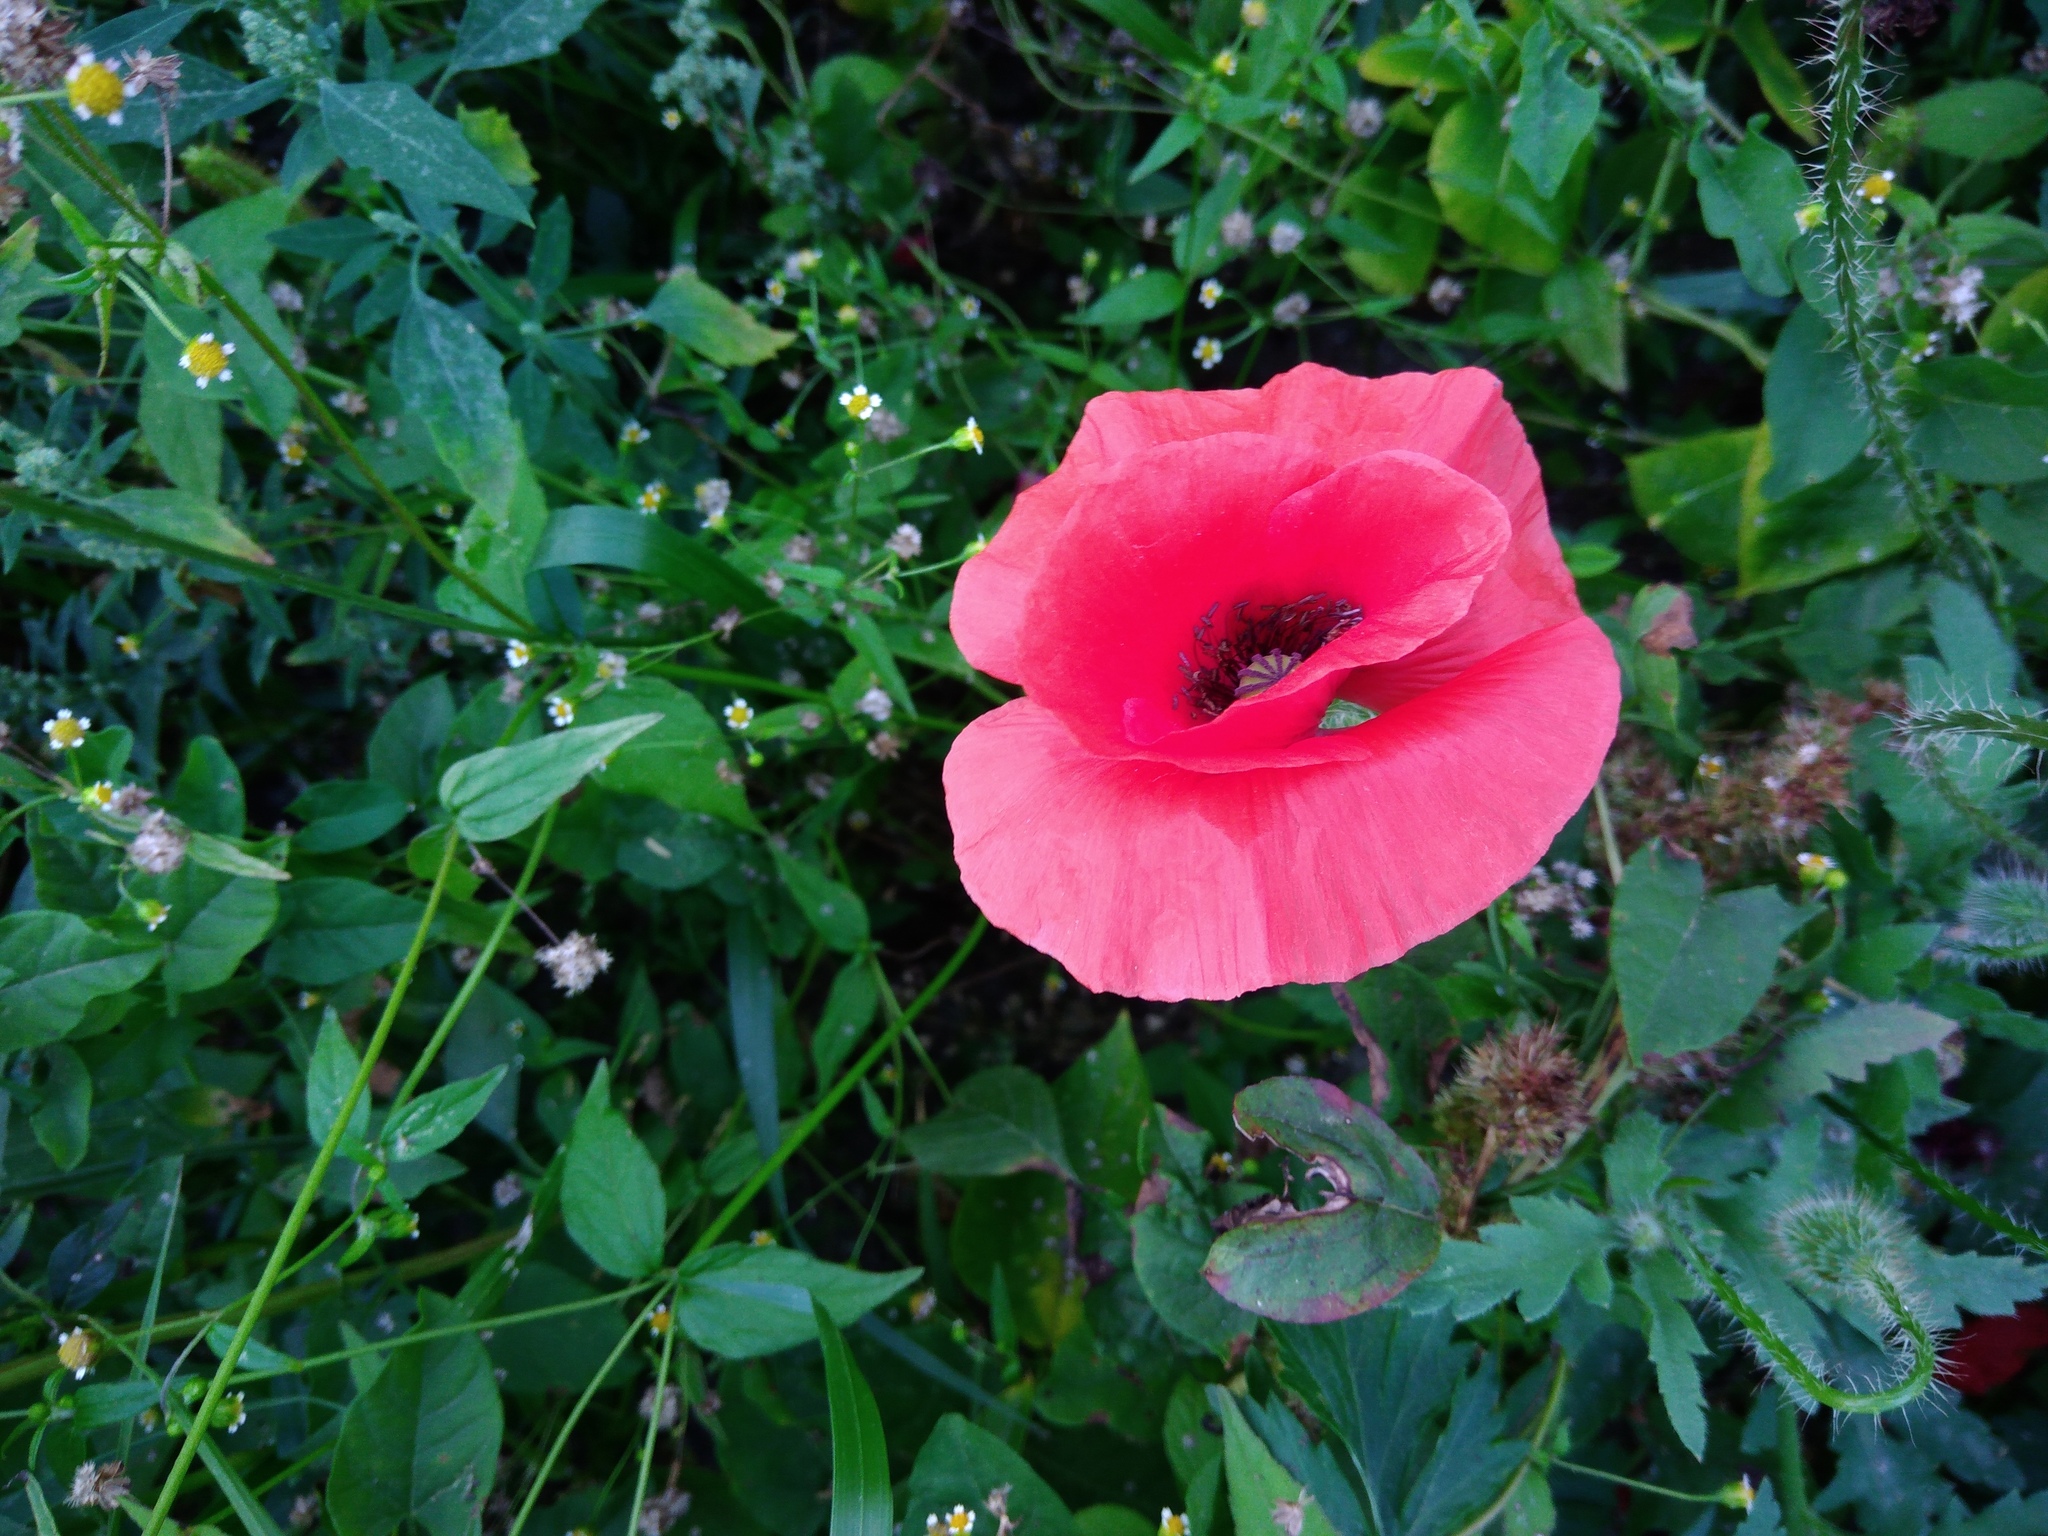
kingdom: Plantae
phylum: Tracheophyta
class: Magnoliopsida
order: Ranunculales
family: Papaveraceae
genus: Papaver
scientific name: Papaver rhoeas
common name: Corn poppy
